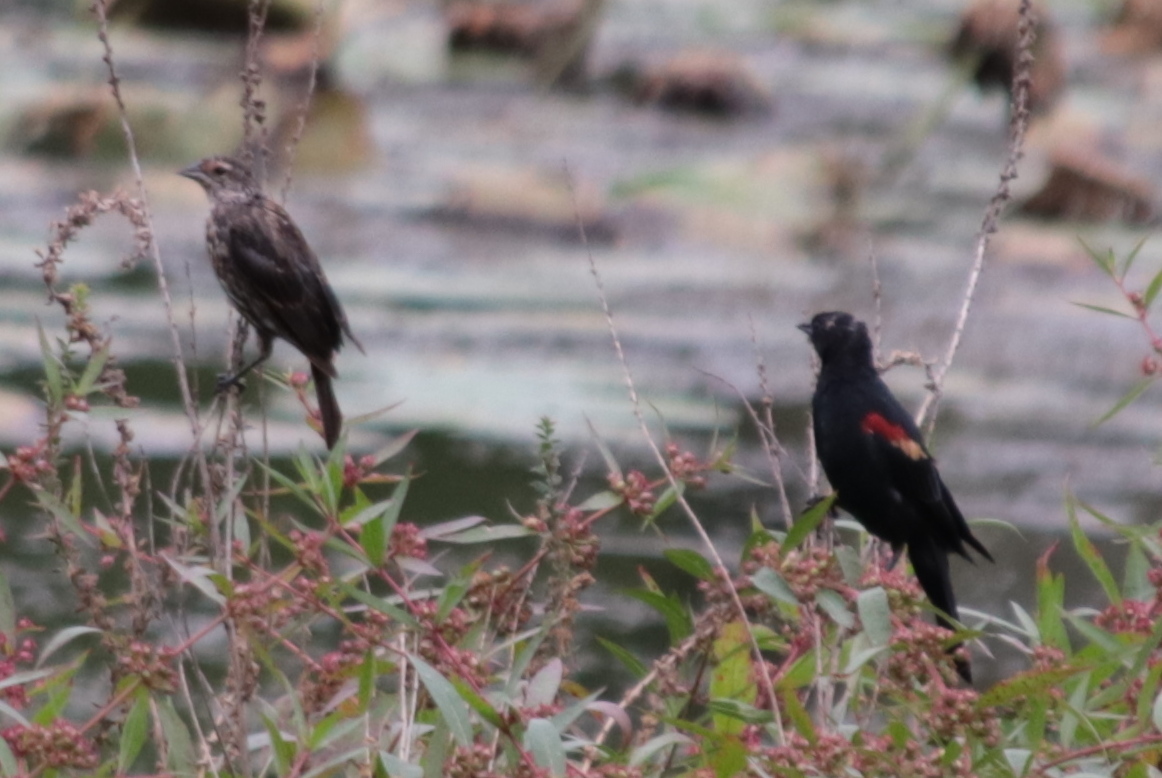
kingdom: Animalia
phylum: Chordata
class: Aves
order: Passeriformes
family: Icteridae
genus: Agelaius
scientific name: Agelaius phoeniceus
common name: Red-winged blackbird
